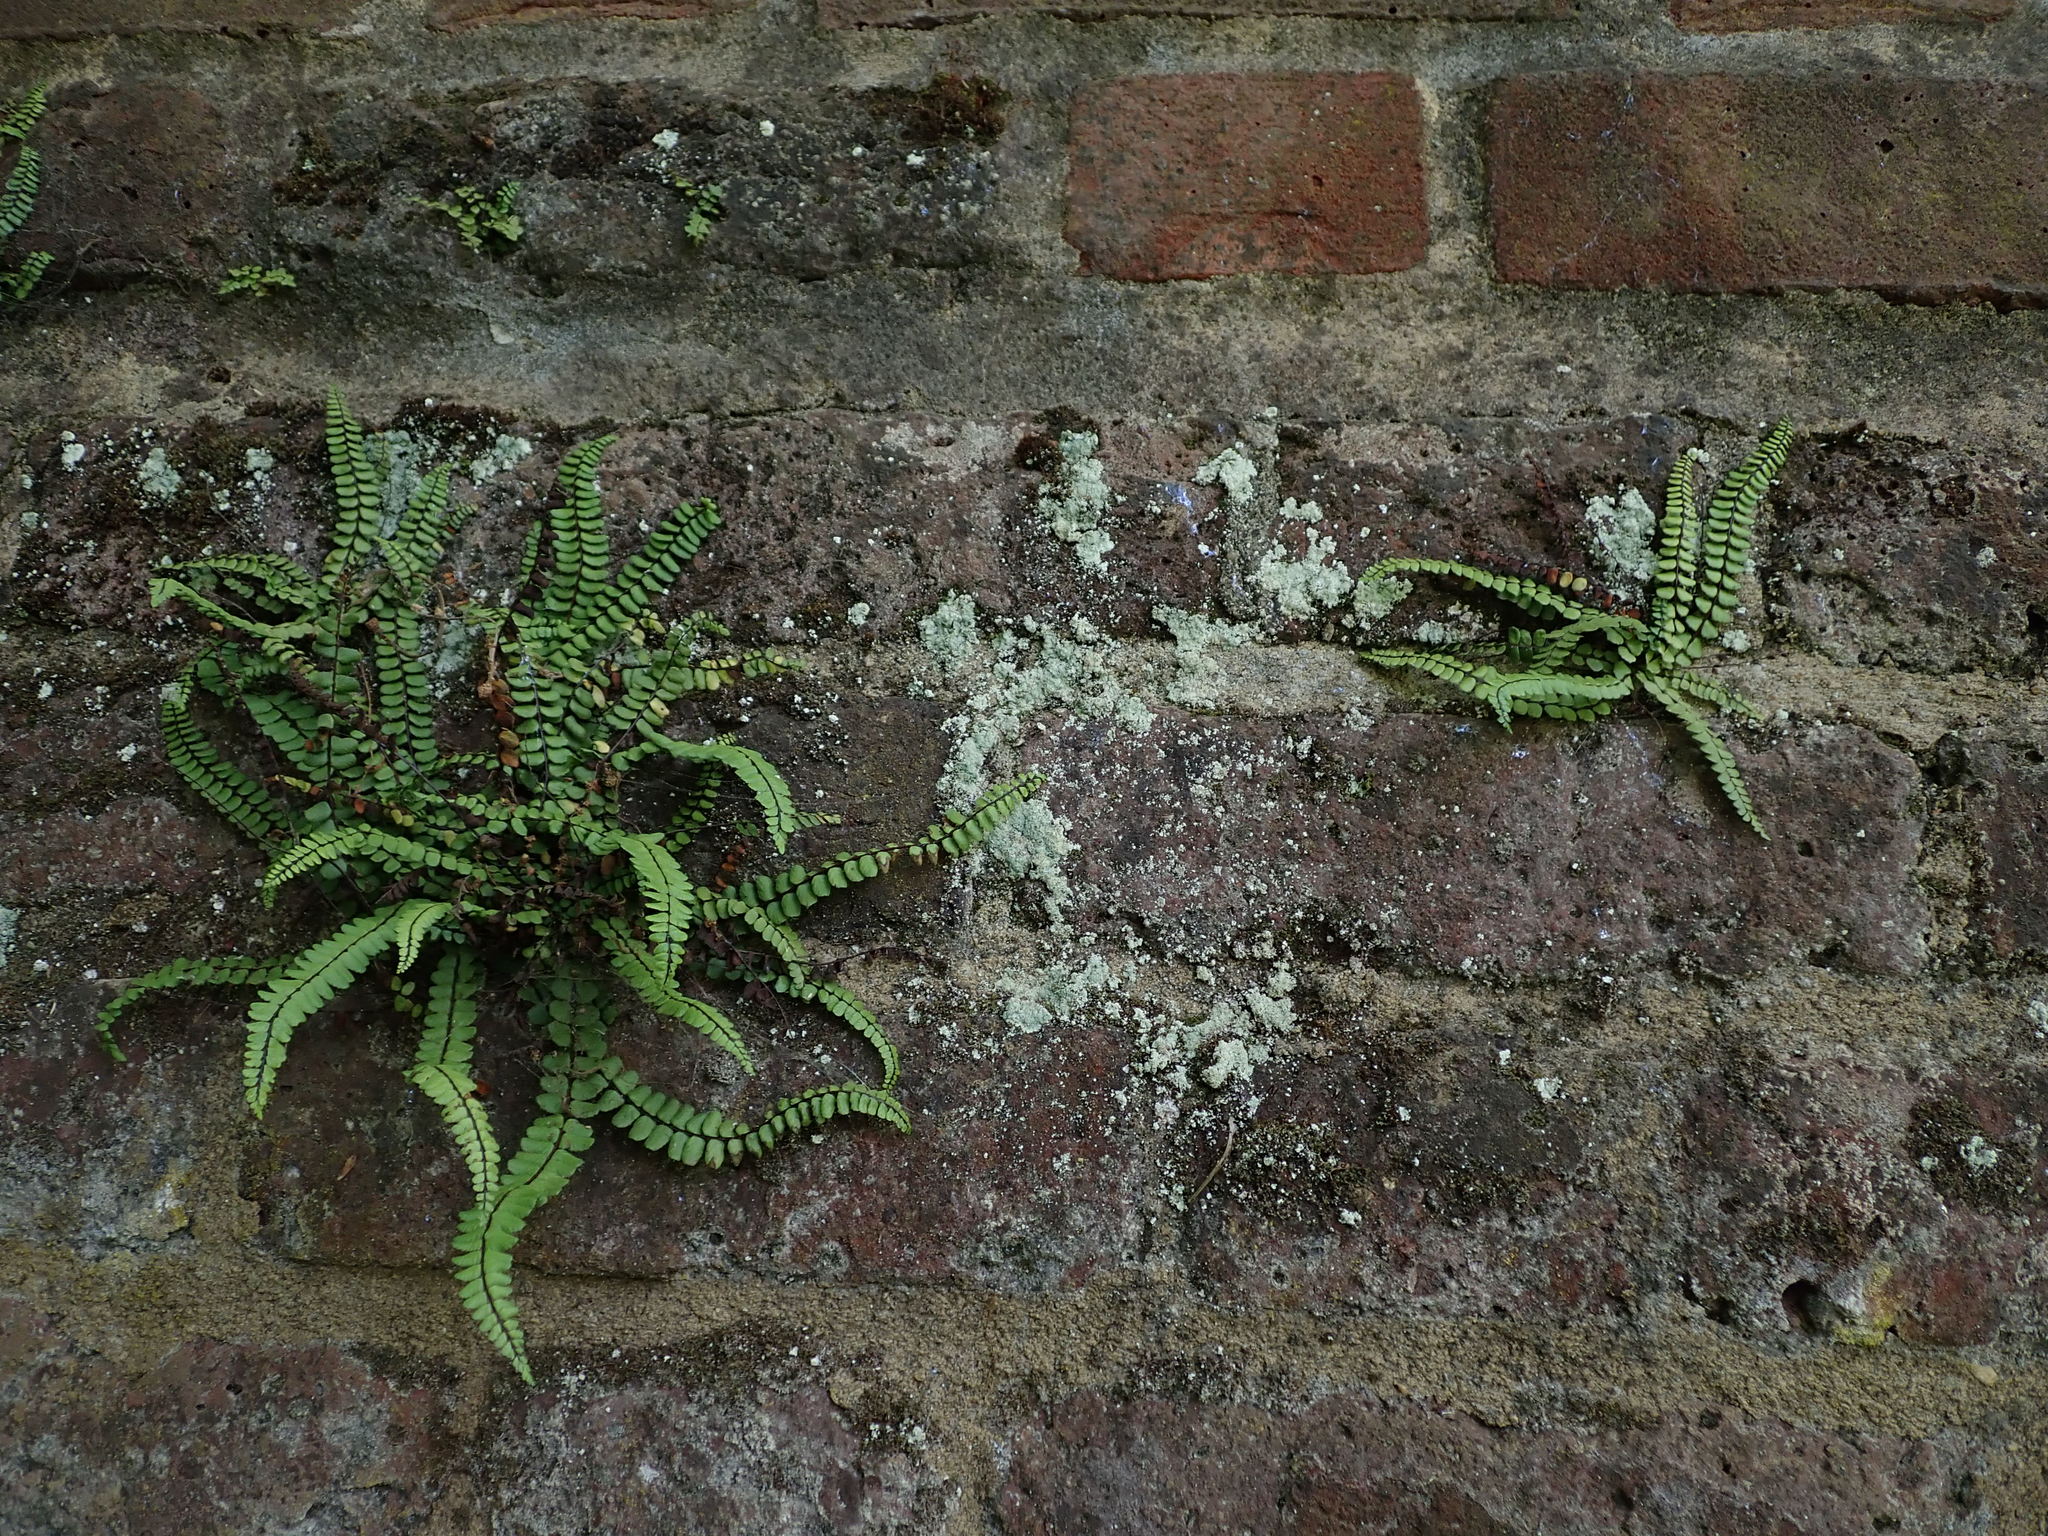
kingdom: Plantae
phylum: Tracheophyta
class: Polypodiopsida
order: Polypodiales
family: Aspleniaceae
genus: Asplenium
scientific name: Asplenium trichomanes
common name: Maidenhair spleenwort
